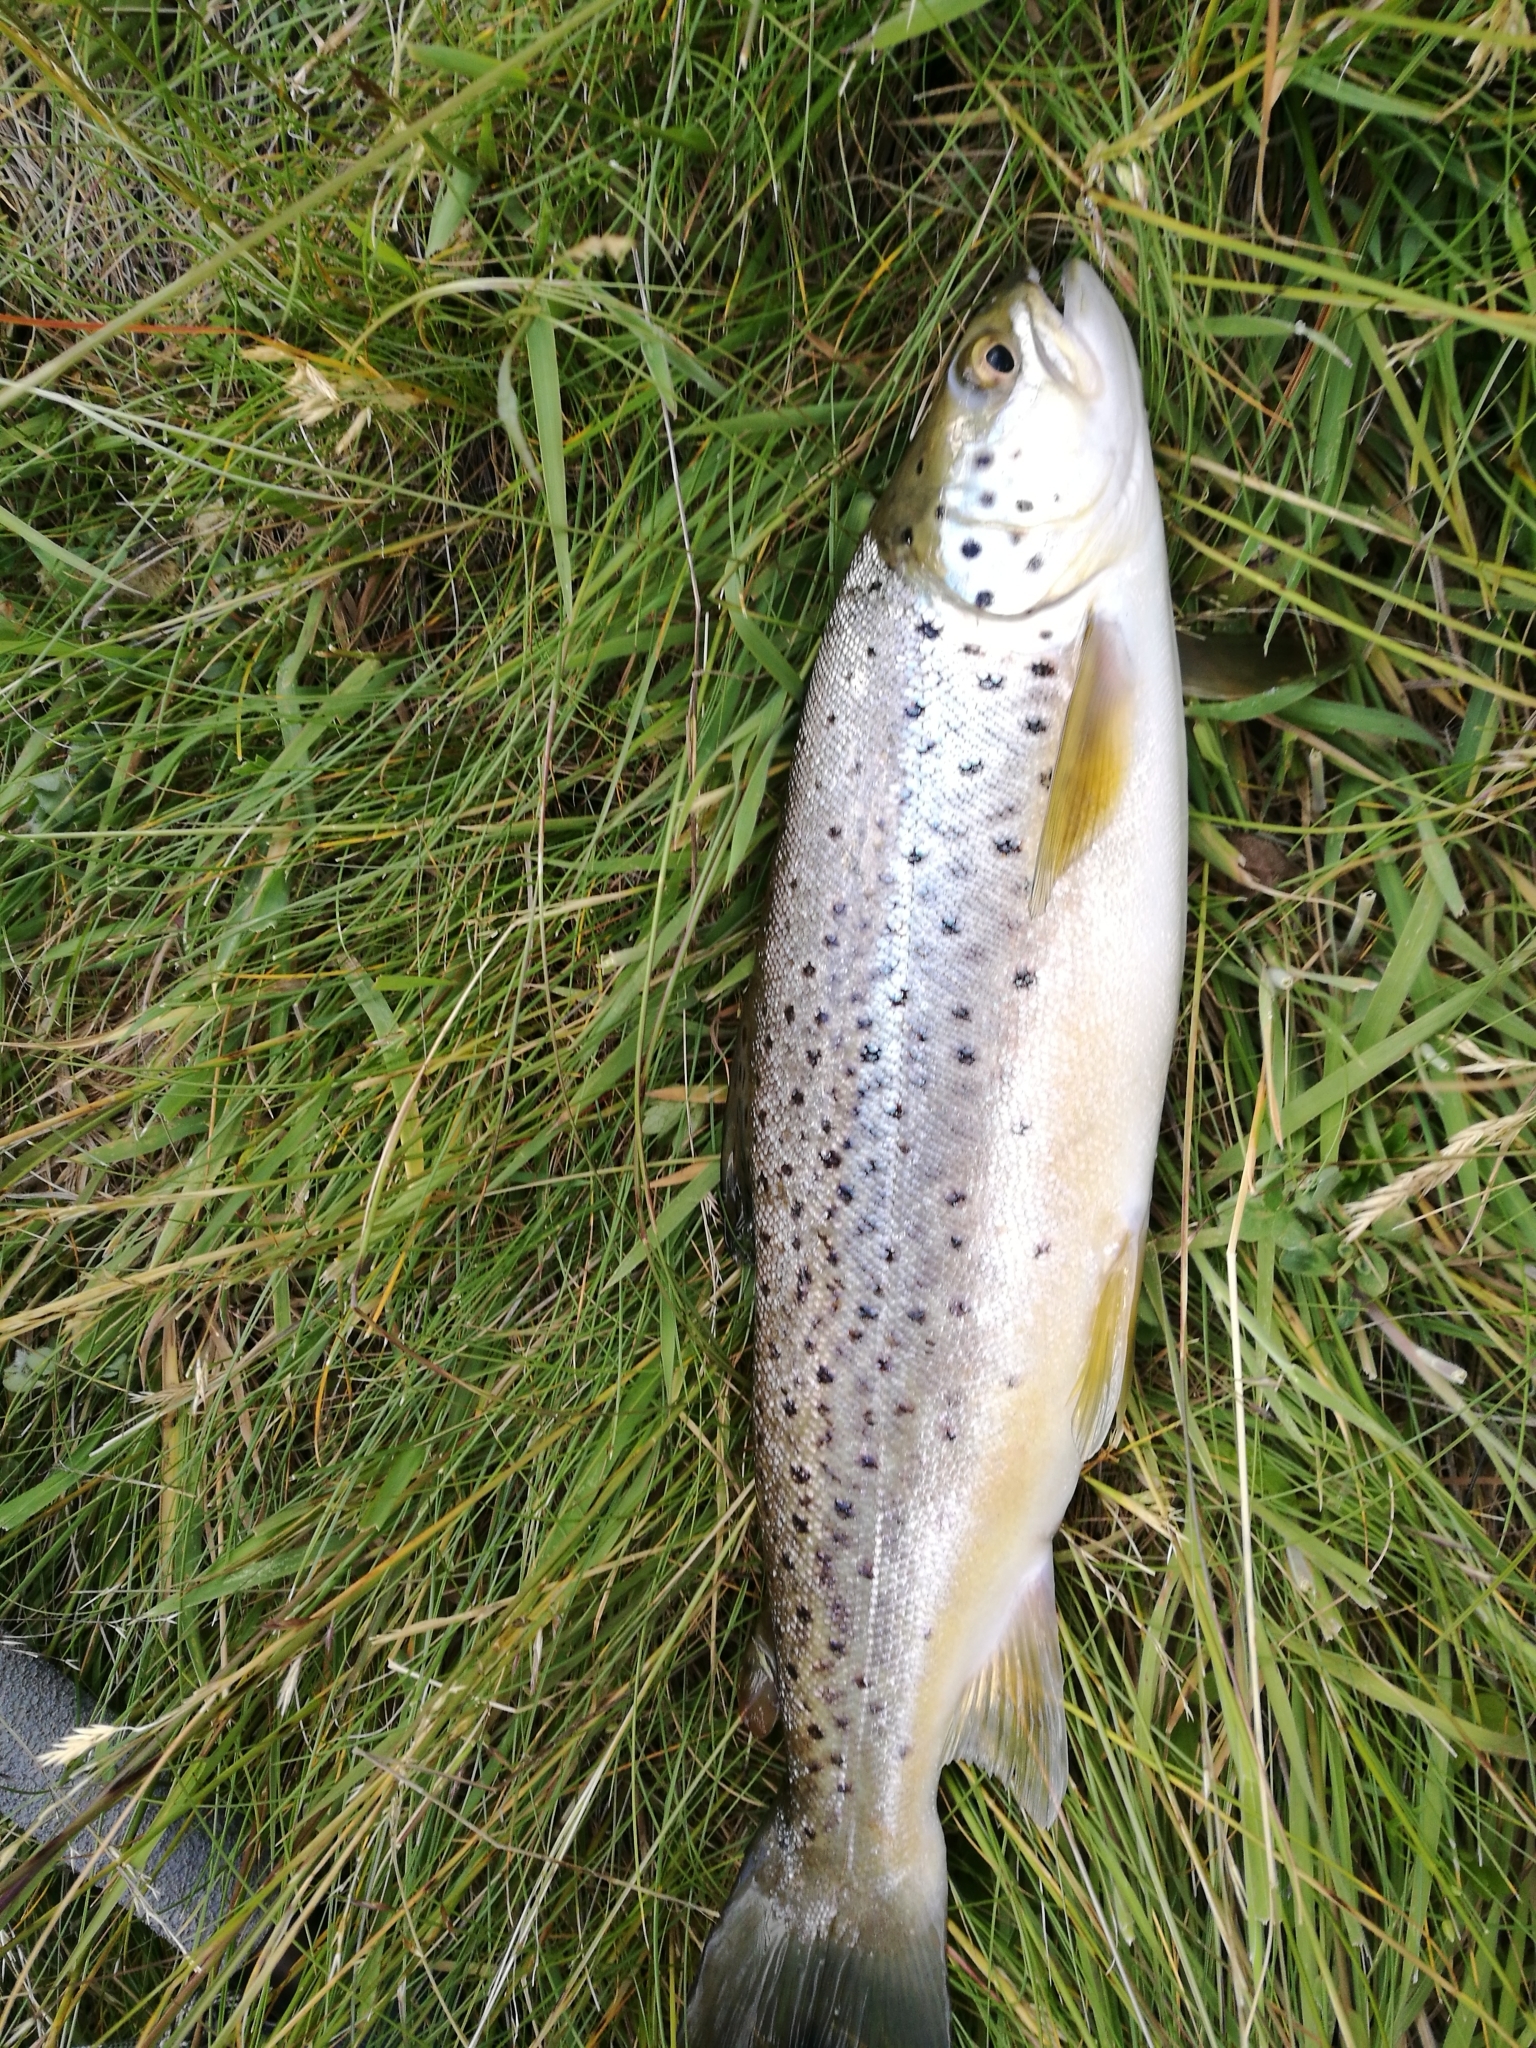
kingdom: Animalia
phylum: Chordata
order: Salmoniformes
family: Salmonidae
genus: Salmo
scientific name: Salmo trutta
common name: Brown trout
